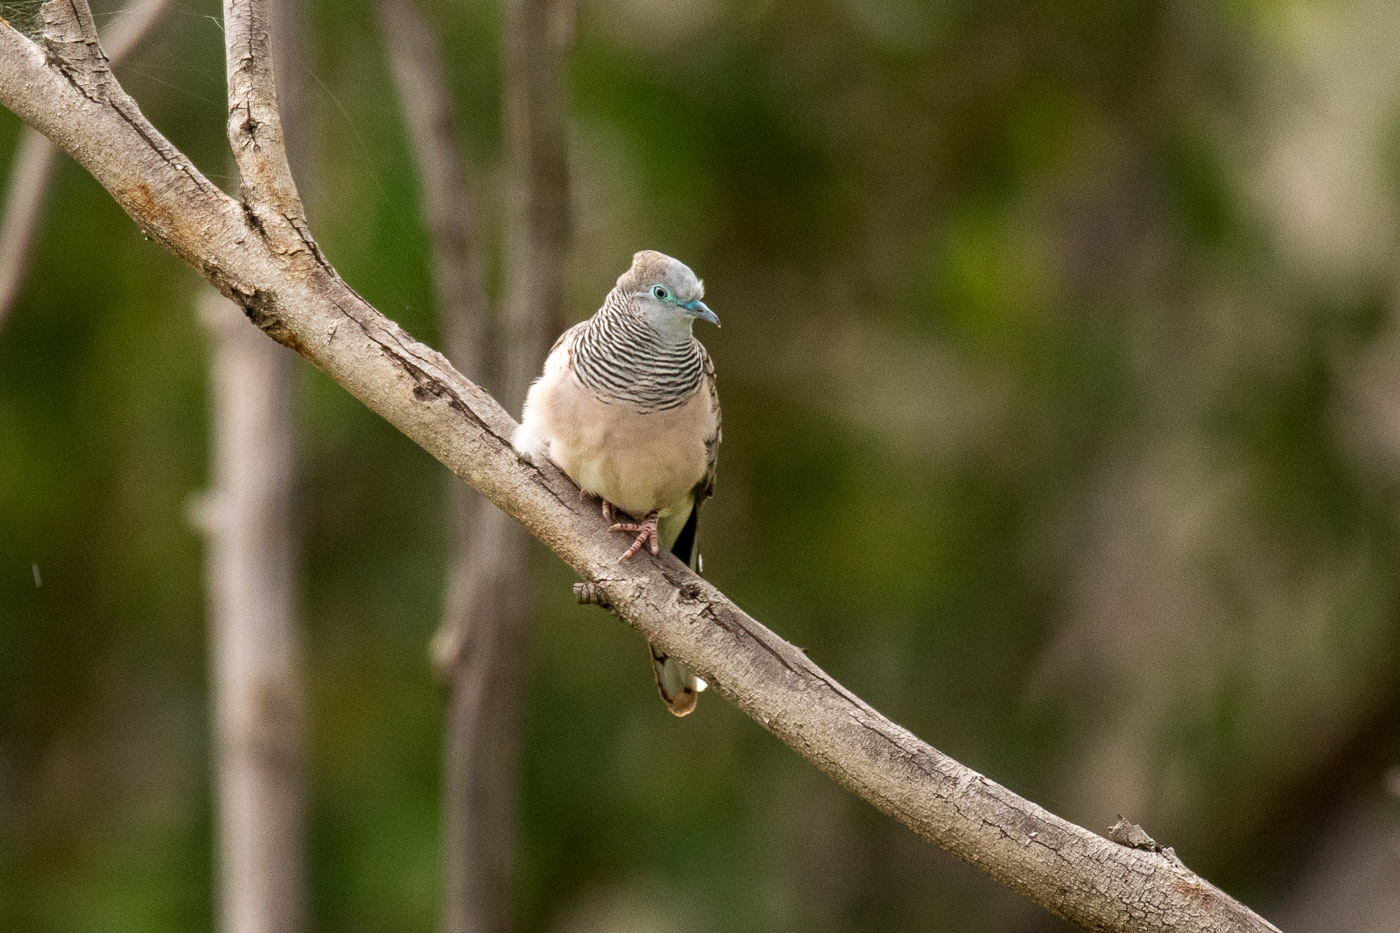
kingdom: Animalia
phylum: Chordata
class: Aves
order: Columbiformes
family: Columbidae
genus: Geopelia
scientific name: Geopelia placida
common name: Peaceful dove
